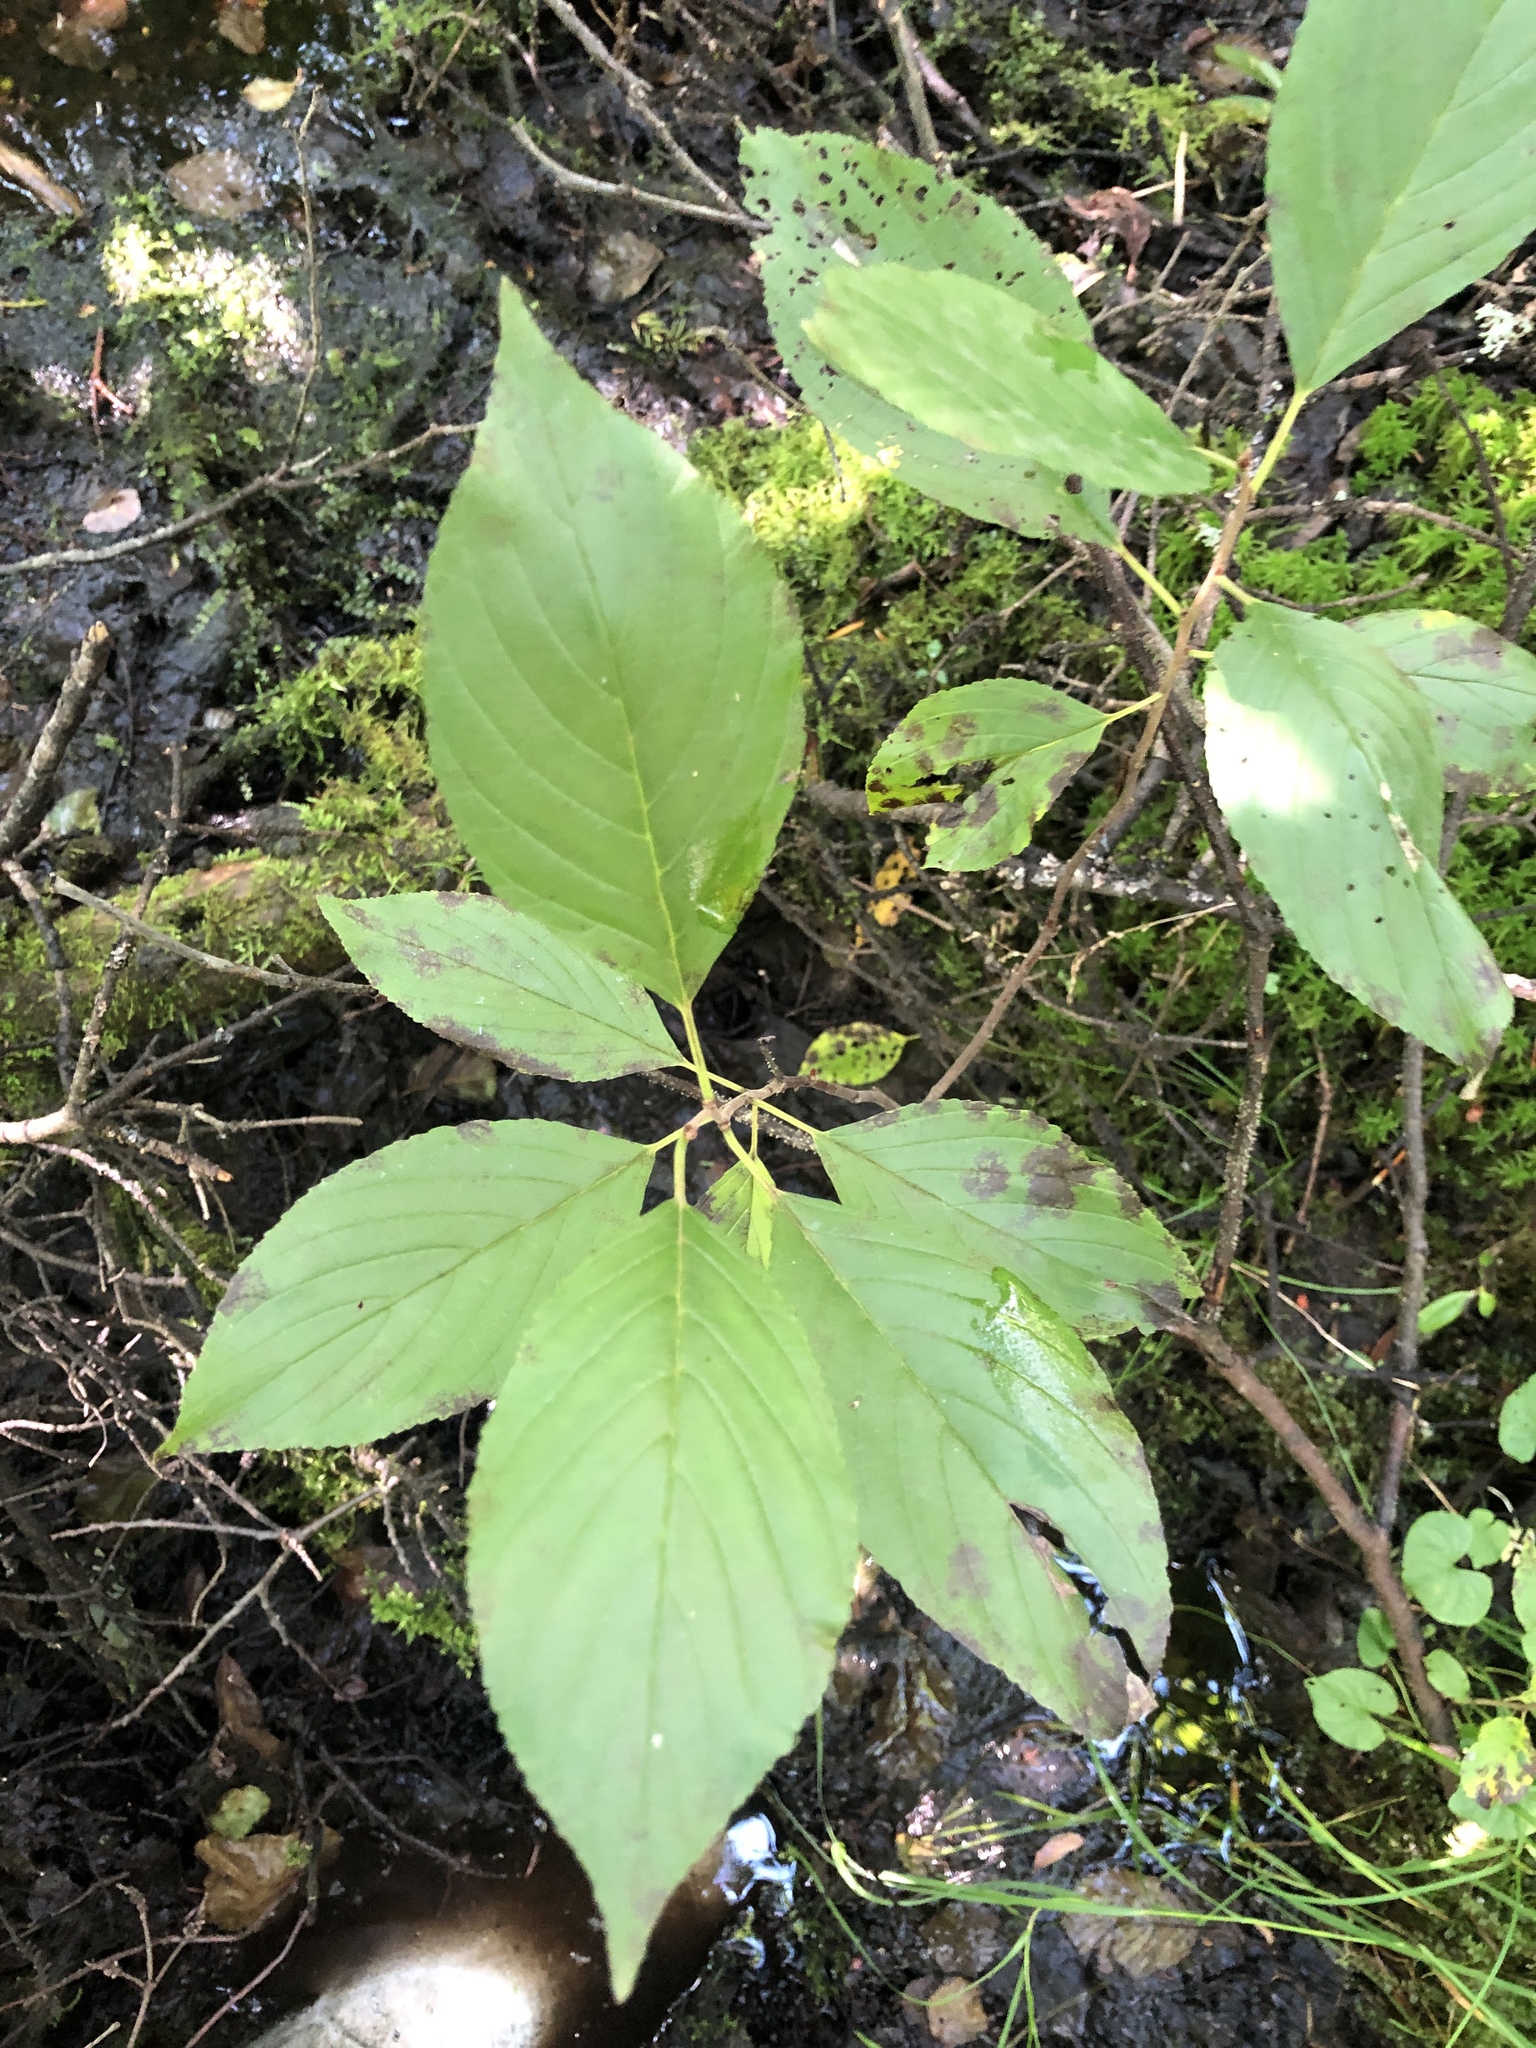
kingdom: Plantae
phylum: Tracheophyta
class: Magnoliopsida
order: Rosales
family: Rhamnaceae
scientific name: Rhamnaceae
